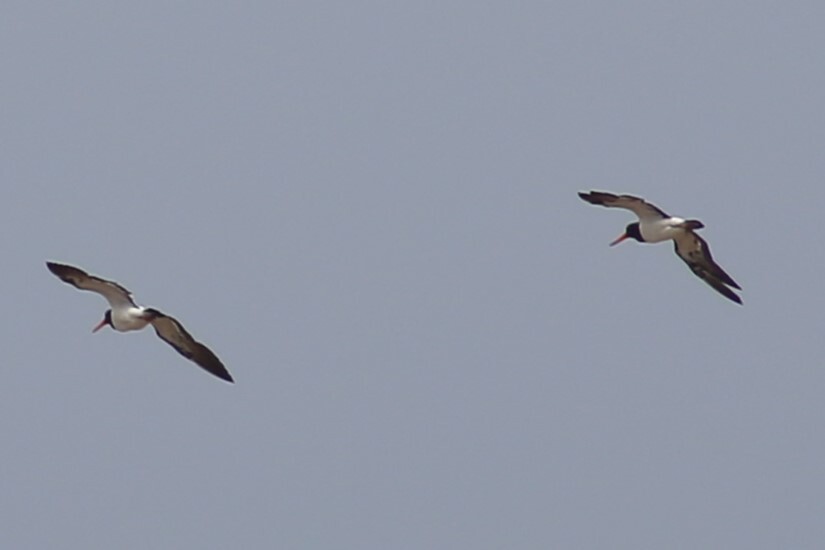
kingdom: Animalia
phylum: Chordata
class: Aves
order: Charadriiformes
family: Haematopodidae
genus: Haematopus
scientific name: Haematopus longirostris
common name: Pied oystercatcher
